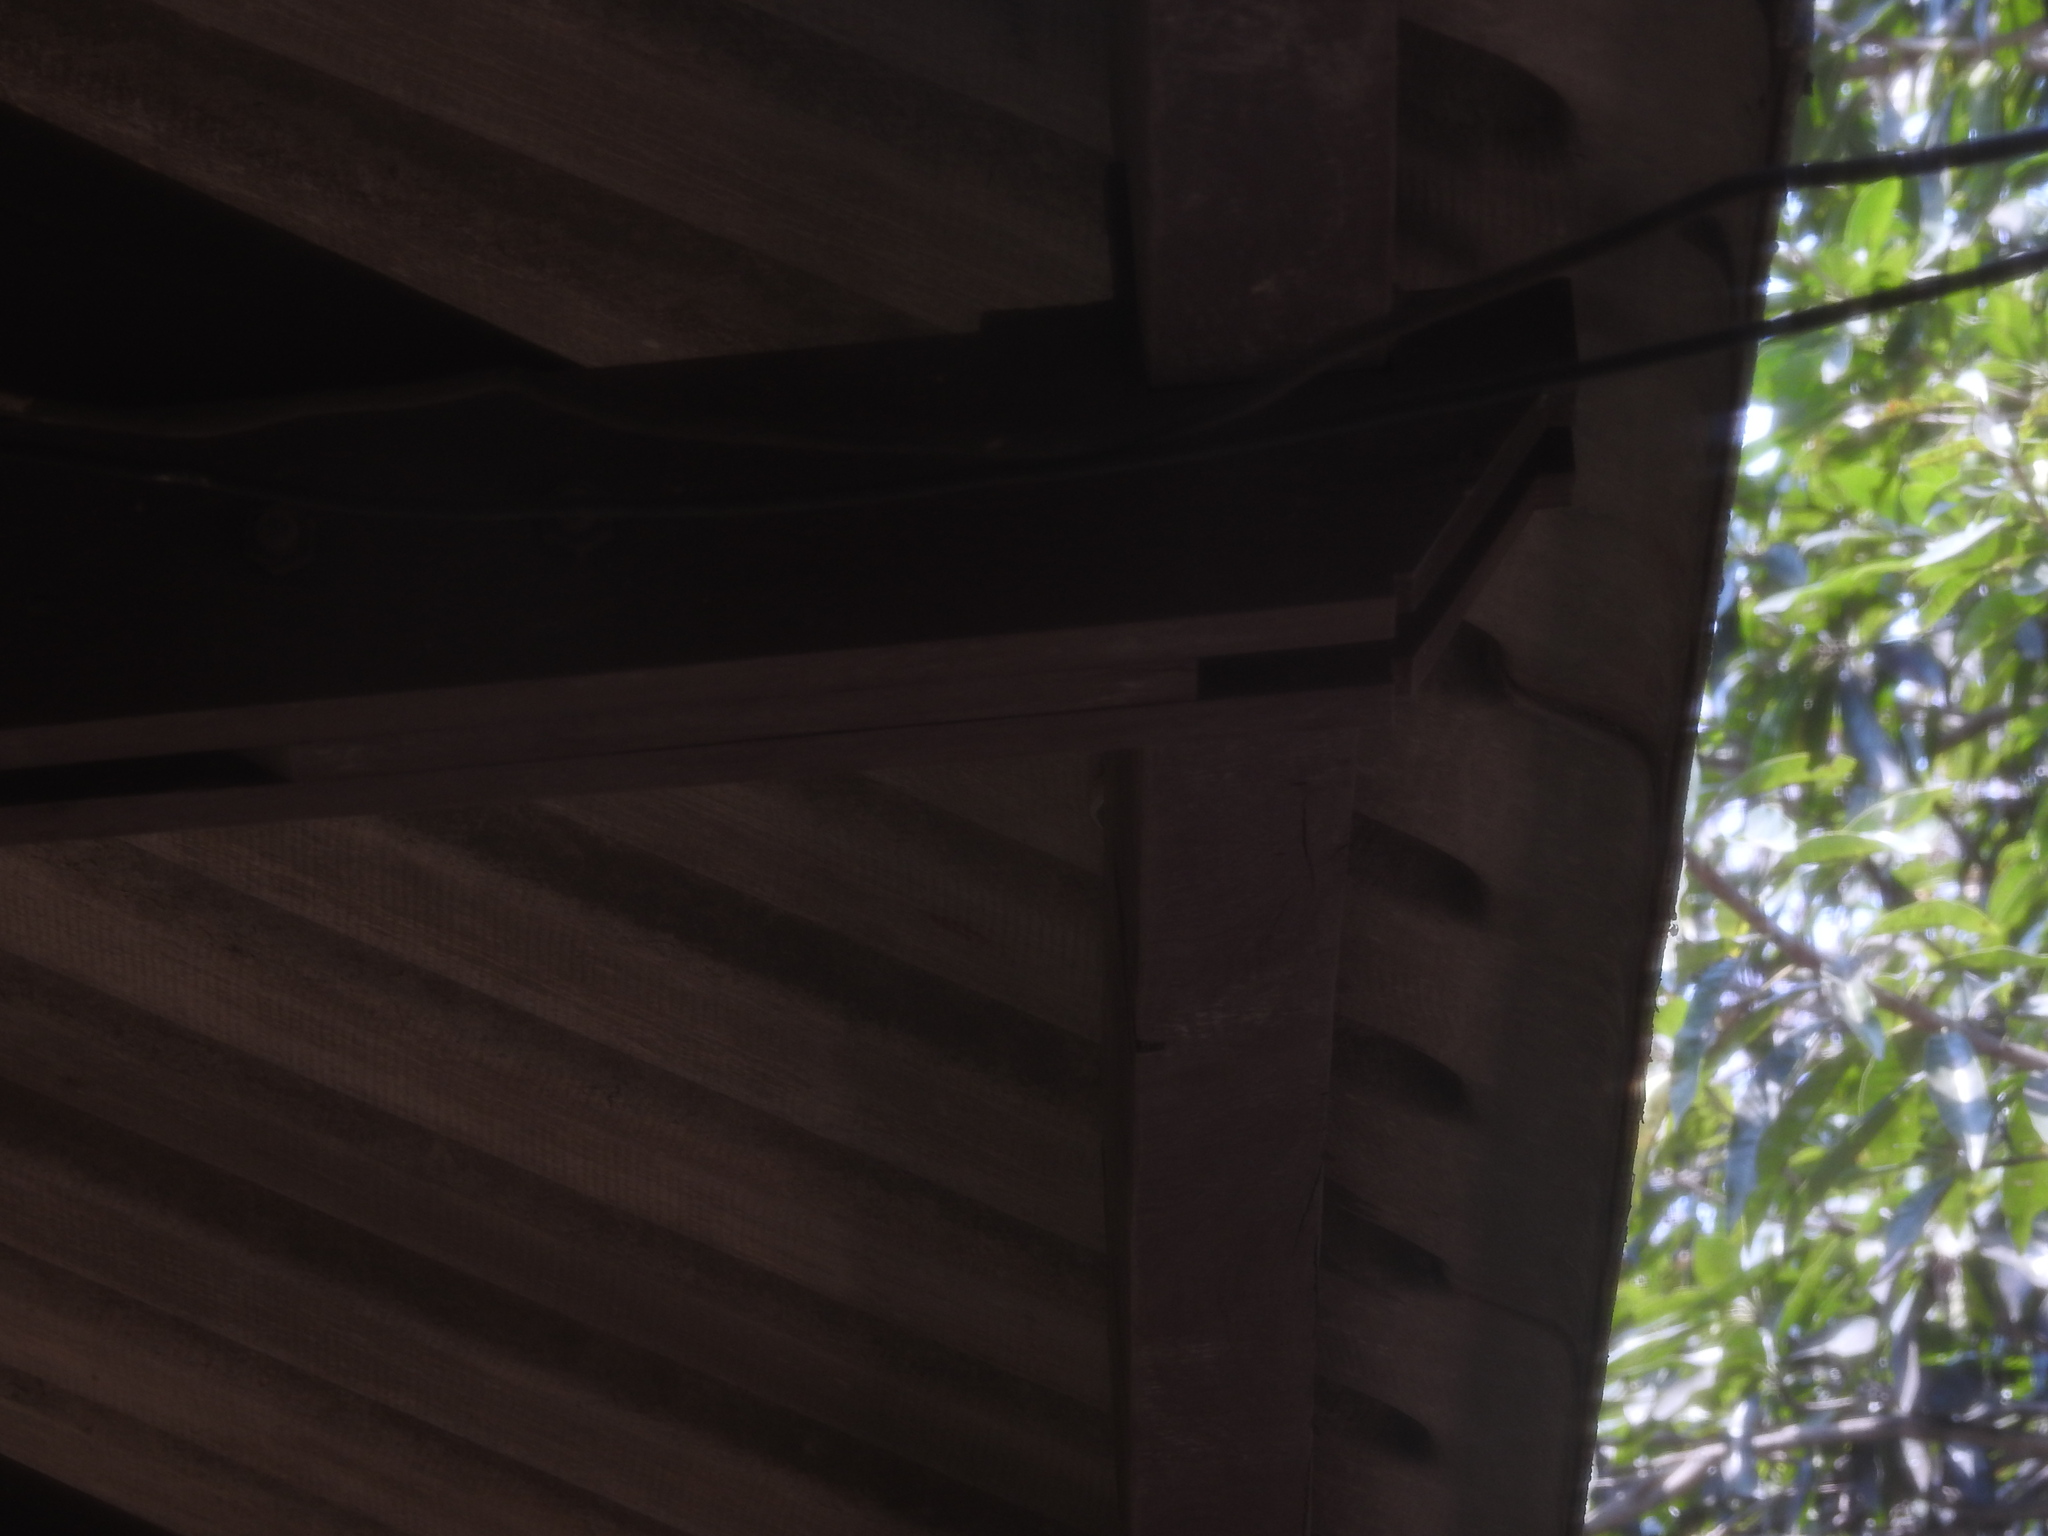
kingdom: Animalia
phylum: Chordata
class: Squamata
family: Colubridae
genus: Dendrelaphis
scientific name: Dendrelaphis tristis
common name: Daudin's bronzeback
